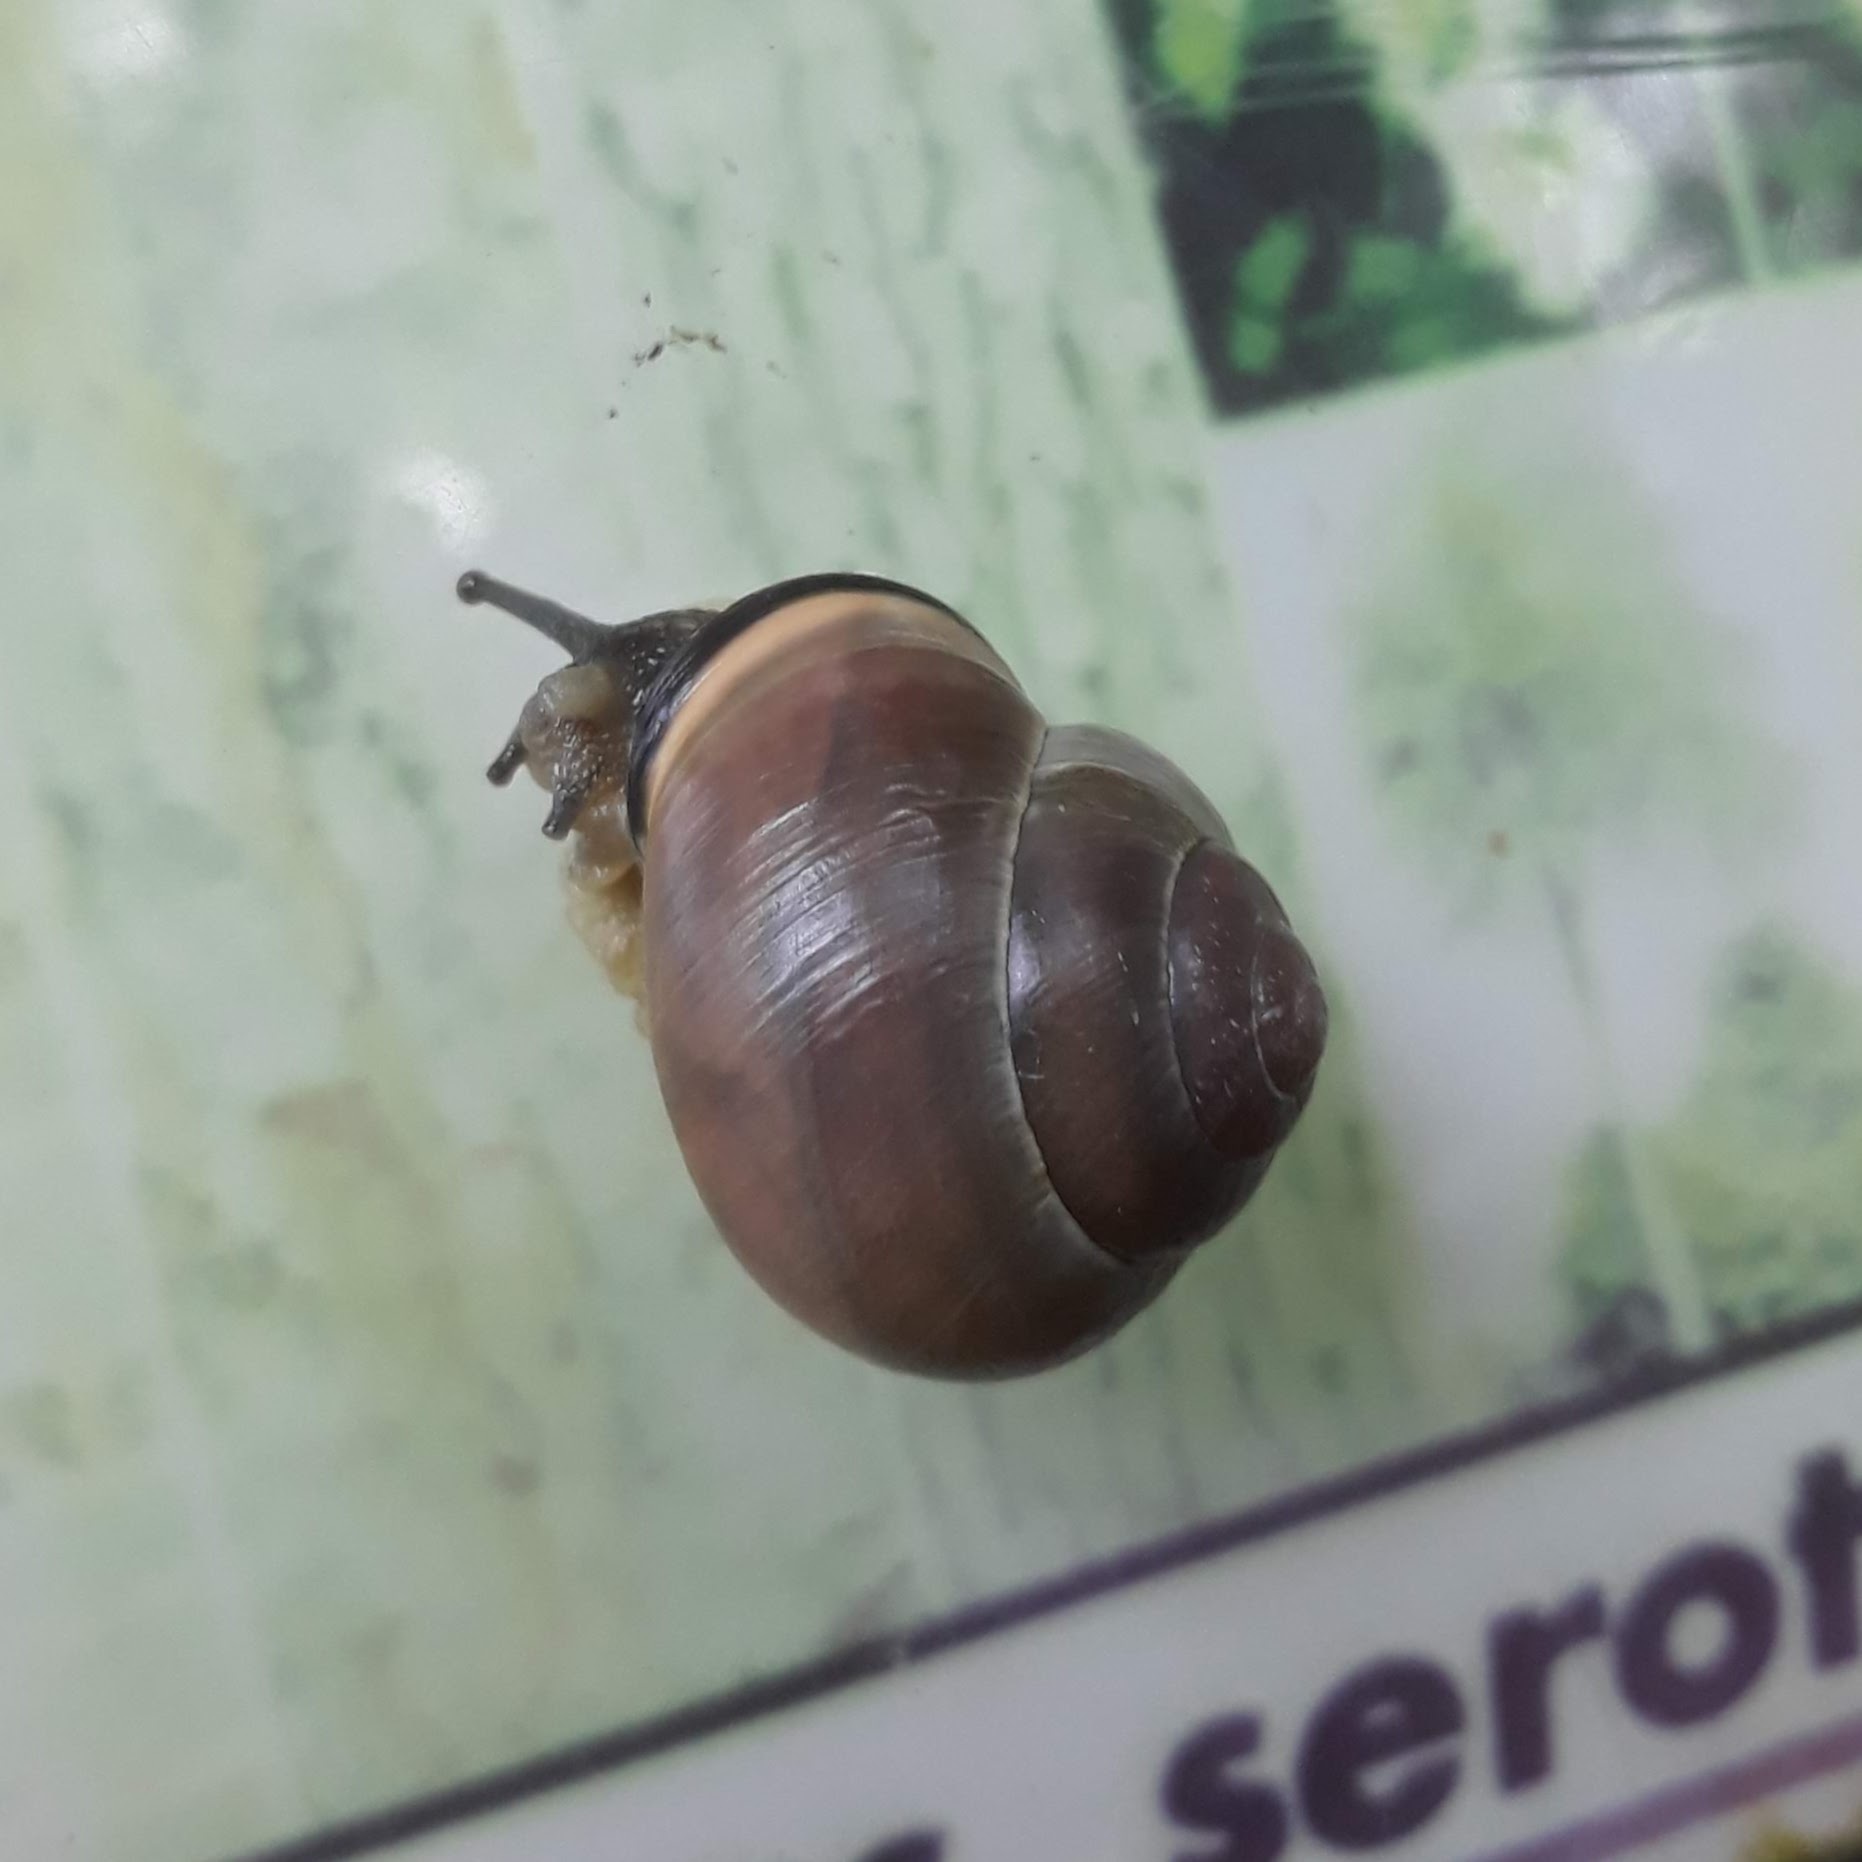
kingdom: Animalia
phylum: Mollusca
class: Gastropoda
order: Stylommatophora
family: Helicidae
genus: Cepaea
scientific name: Cepaea nemoralis
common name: Grovesnail
